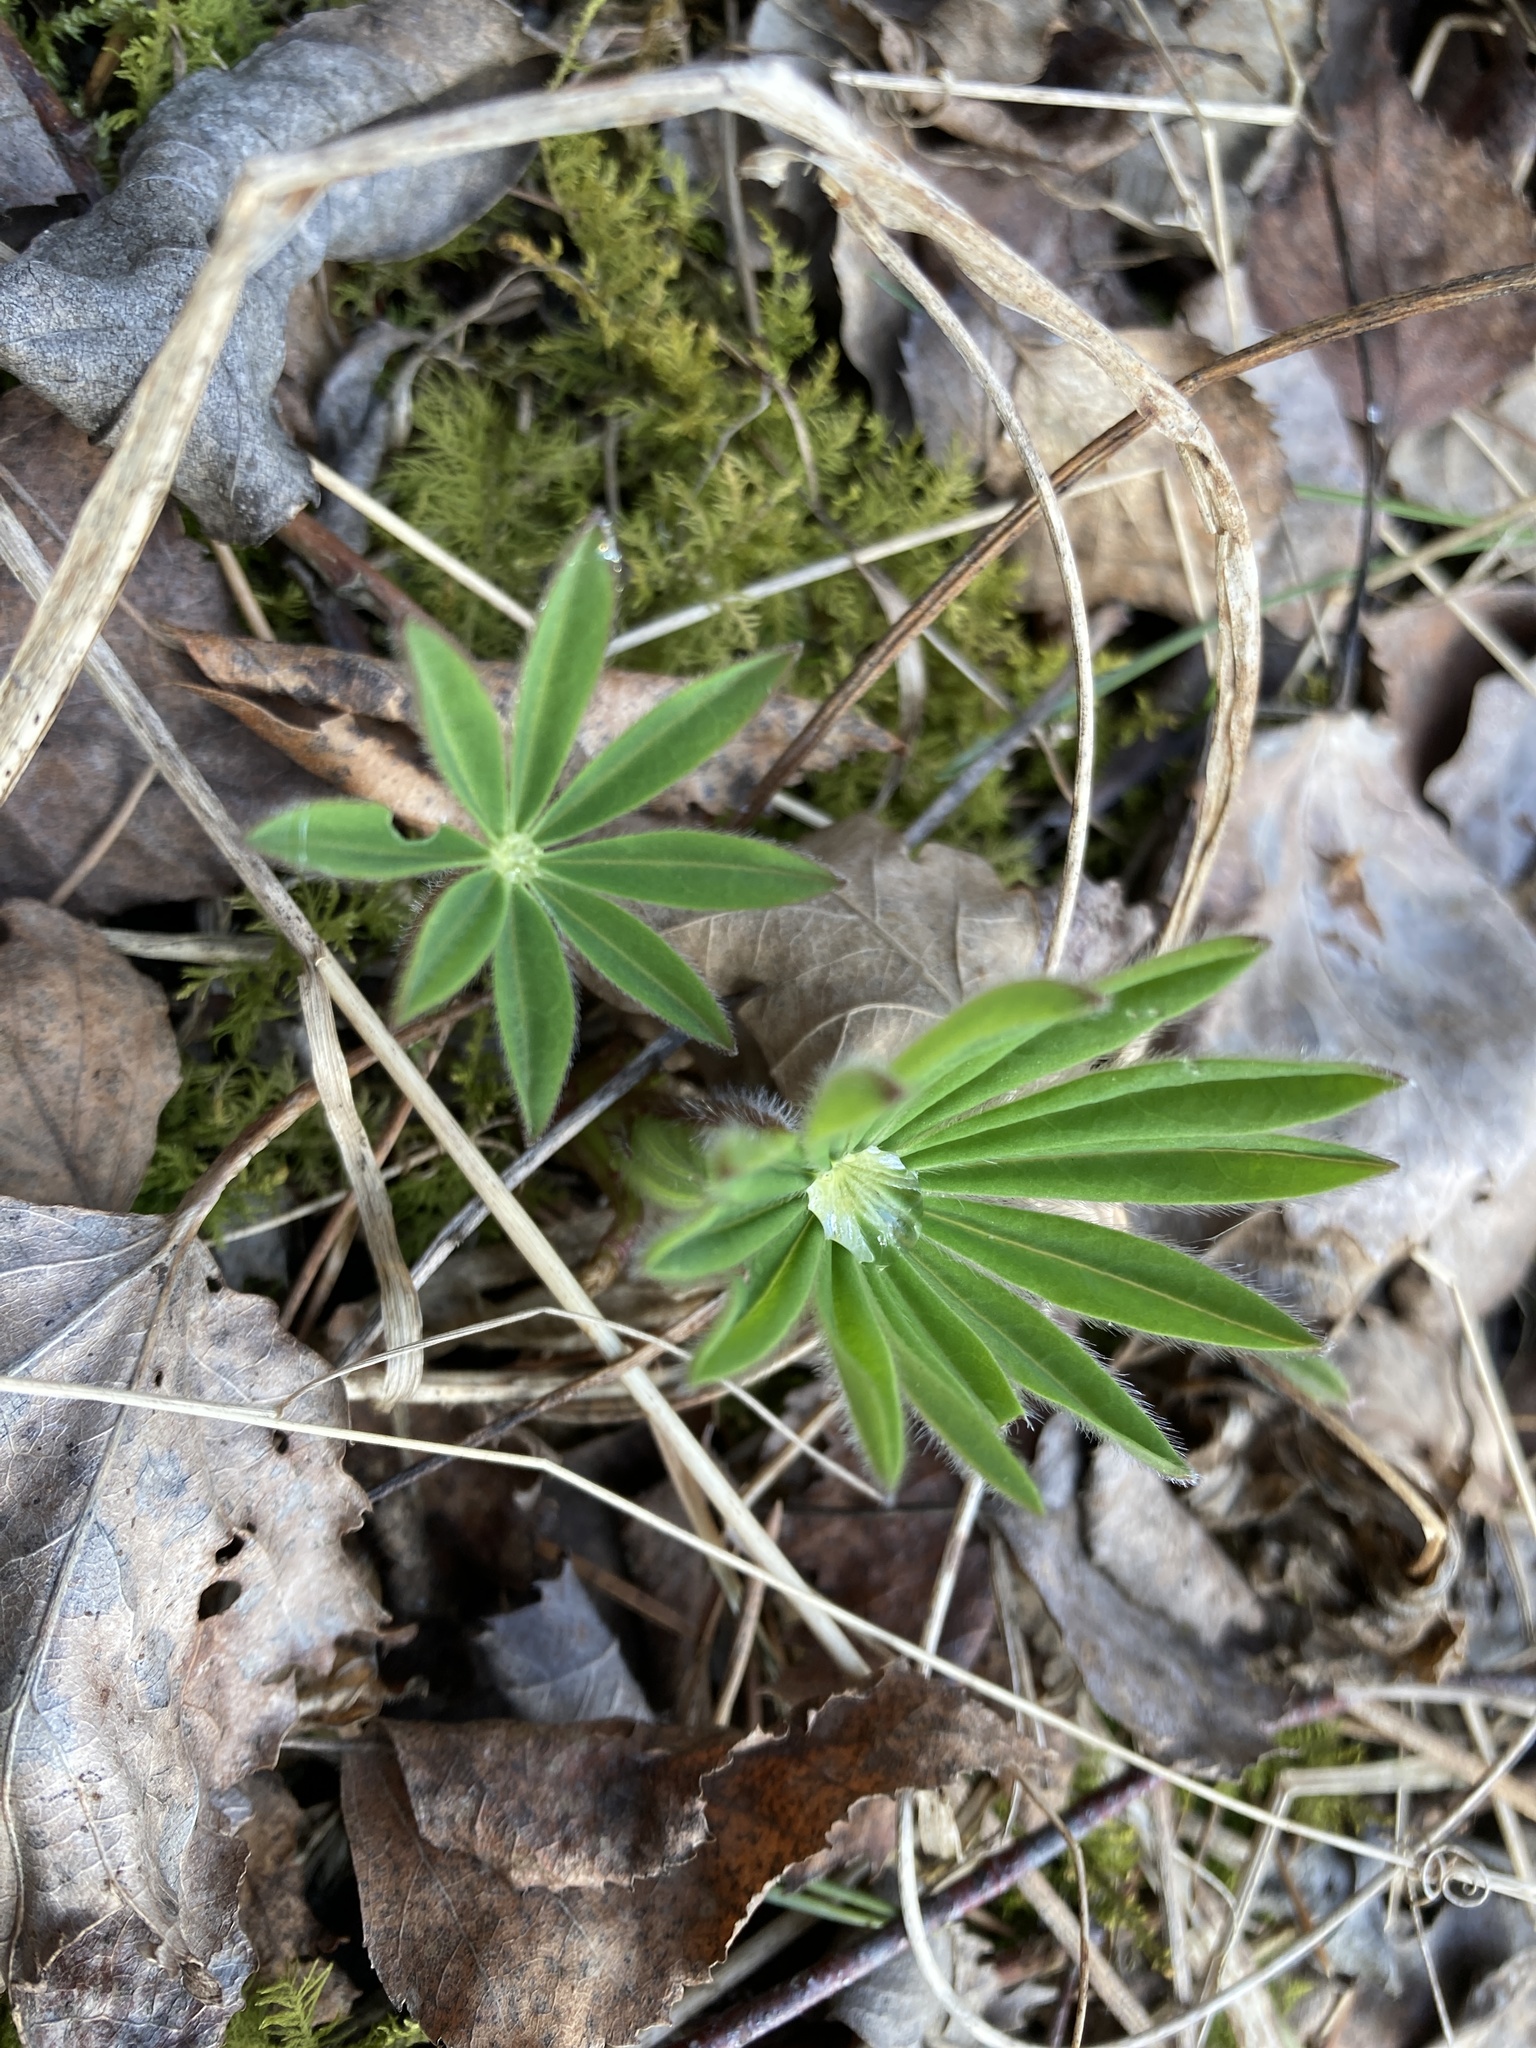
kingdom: Plantae
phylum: Tracheophyta
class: Magnoliopsida
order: Fabales
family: Fabaceae
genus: Lupinus
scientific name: Lupinus polyphyllus
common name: Garden lupin
